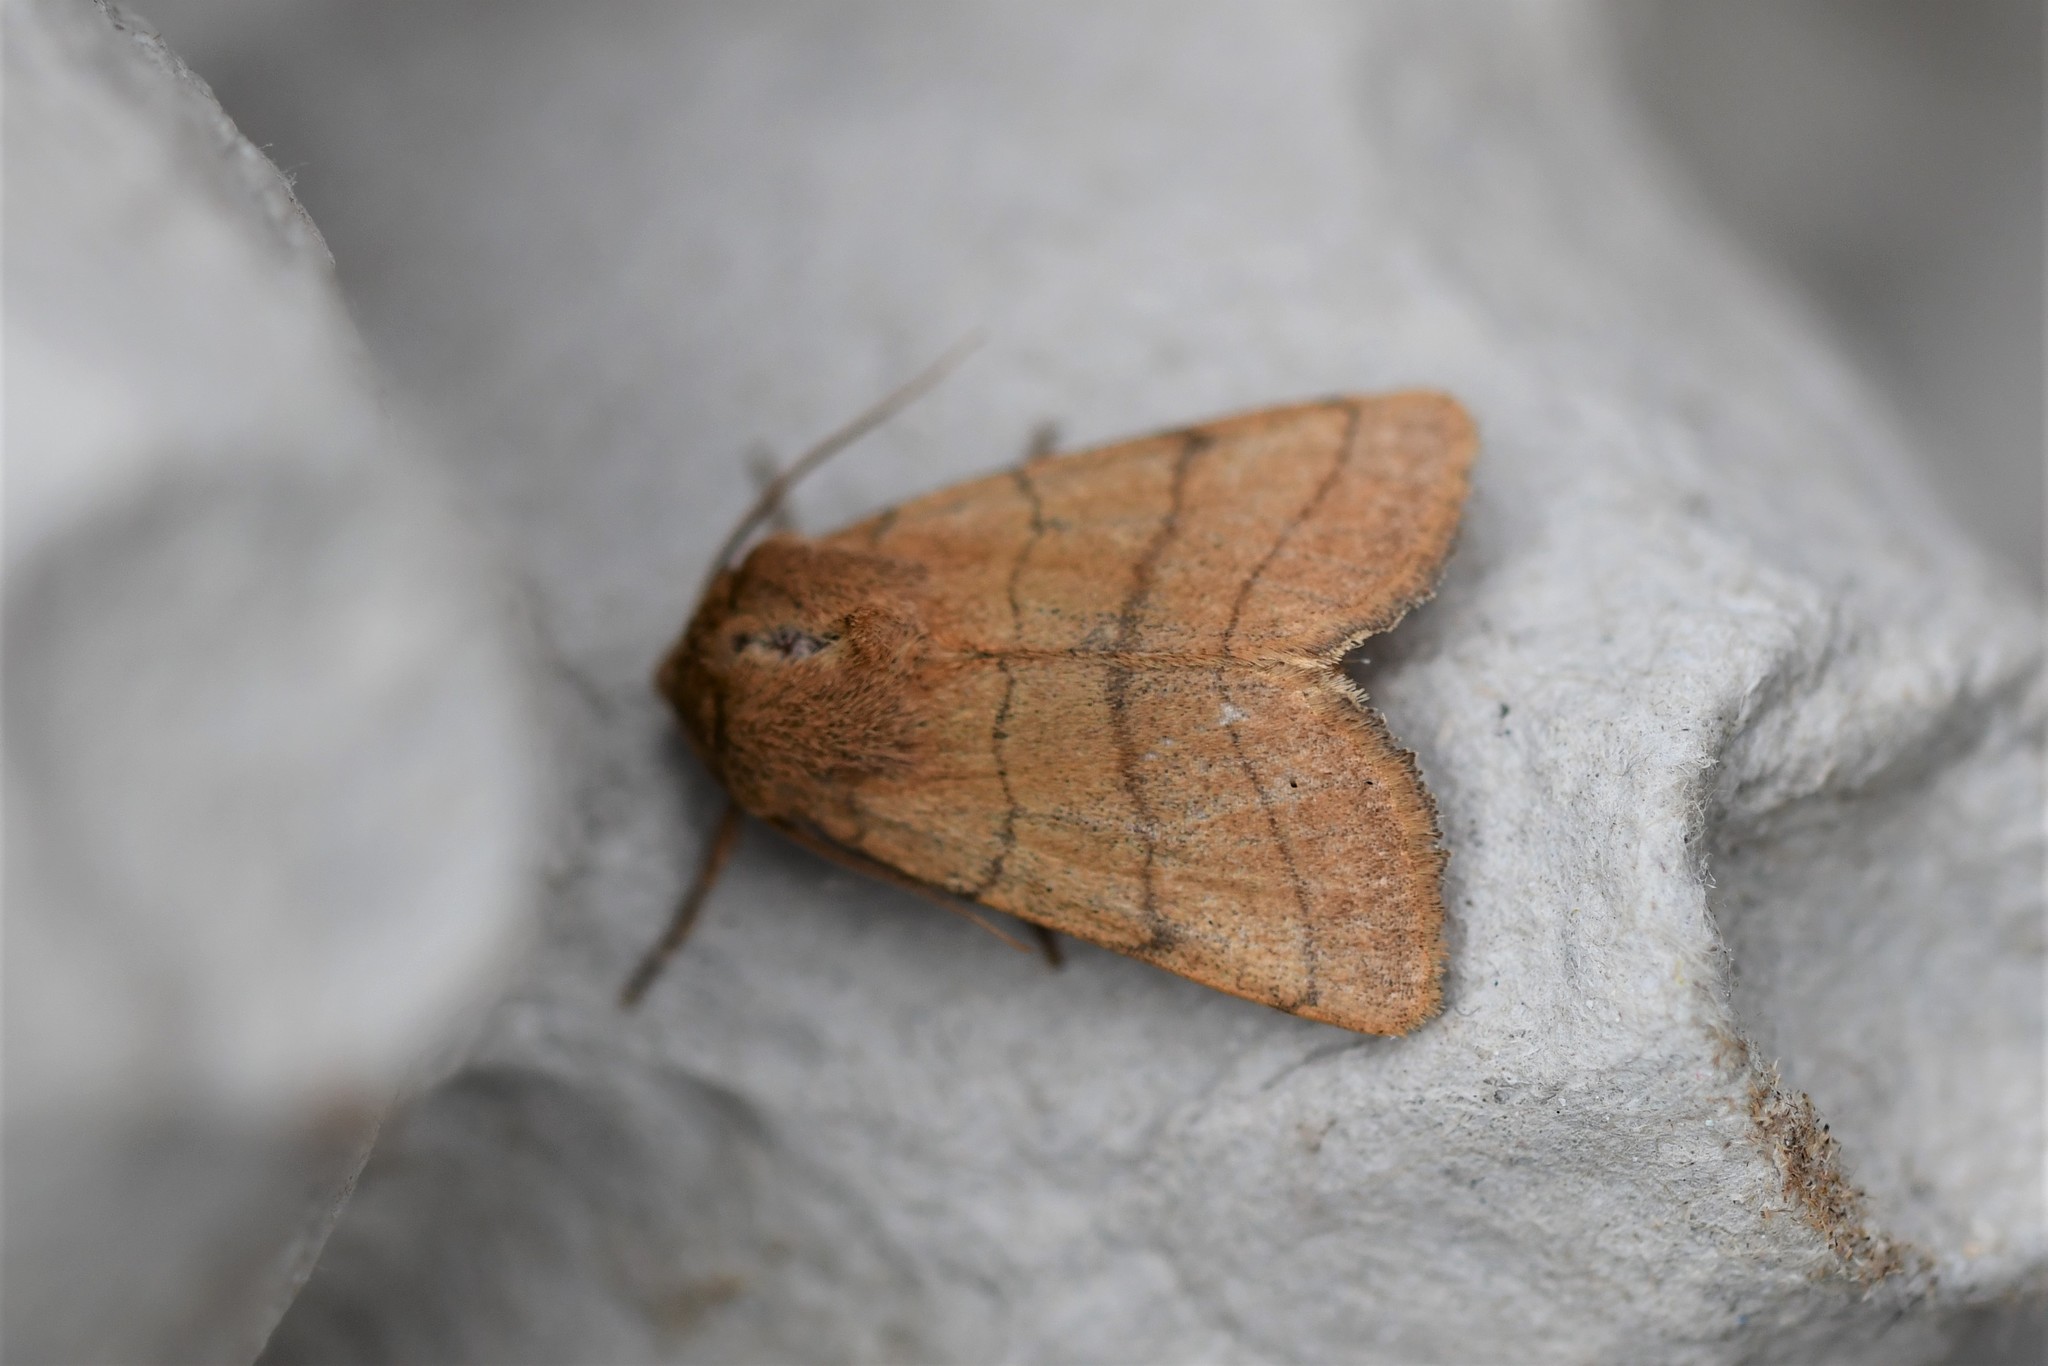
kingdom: Animalia
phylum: Arthropoda
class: Insecta
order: Lepidoptera
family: Noctuidae
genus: Charanyca
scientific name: Charanyca trigrammica
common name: Treble lines
